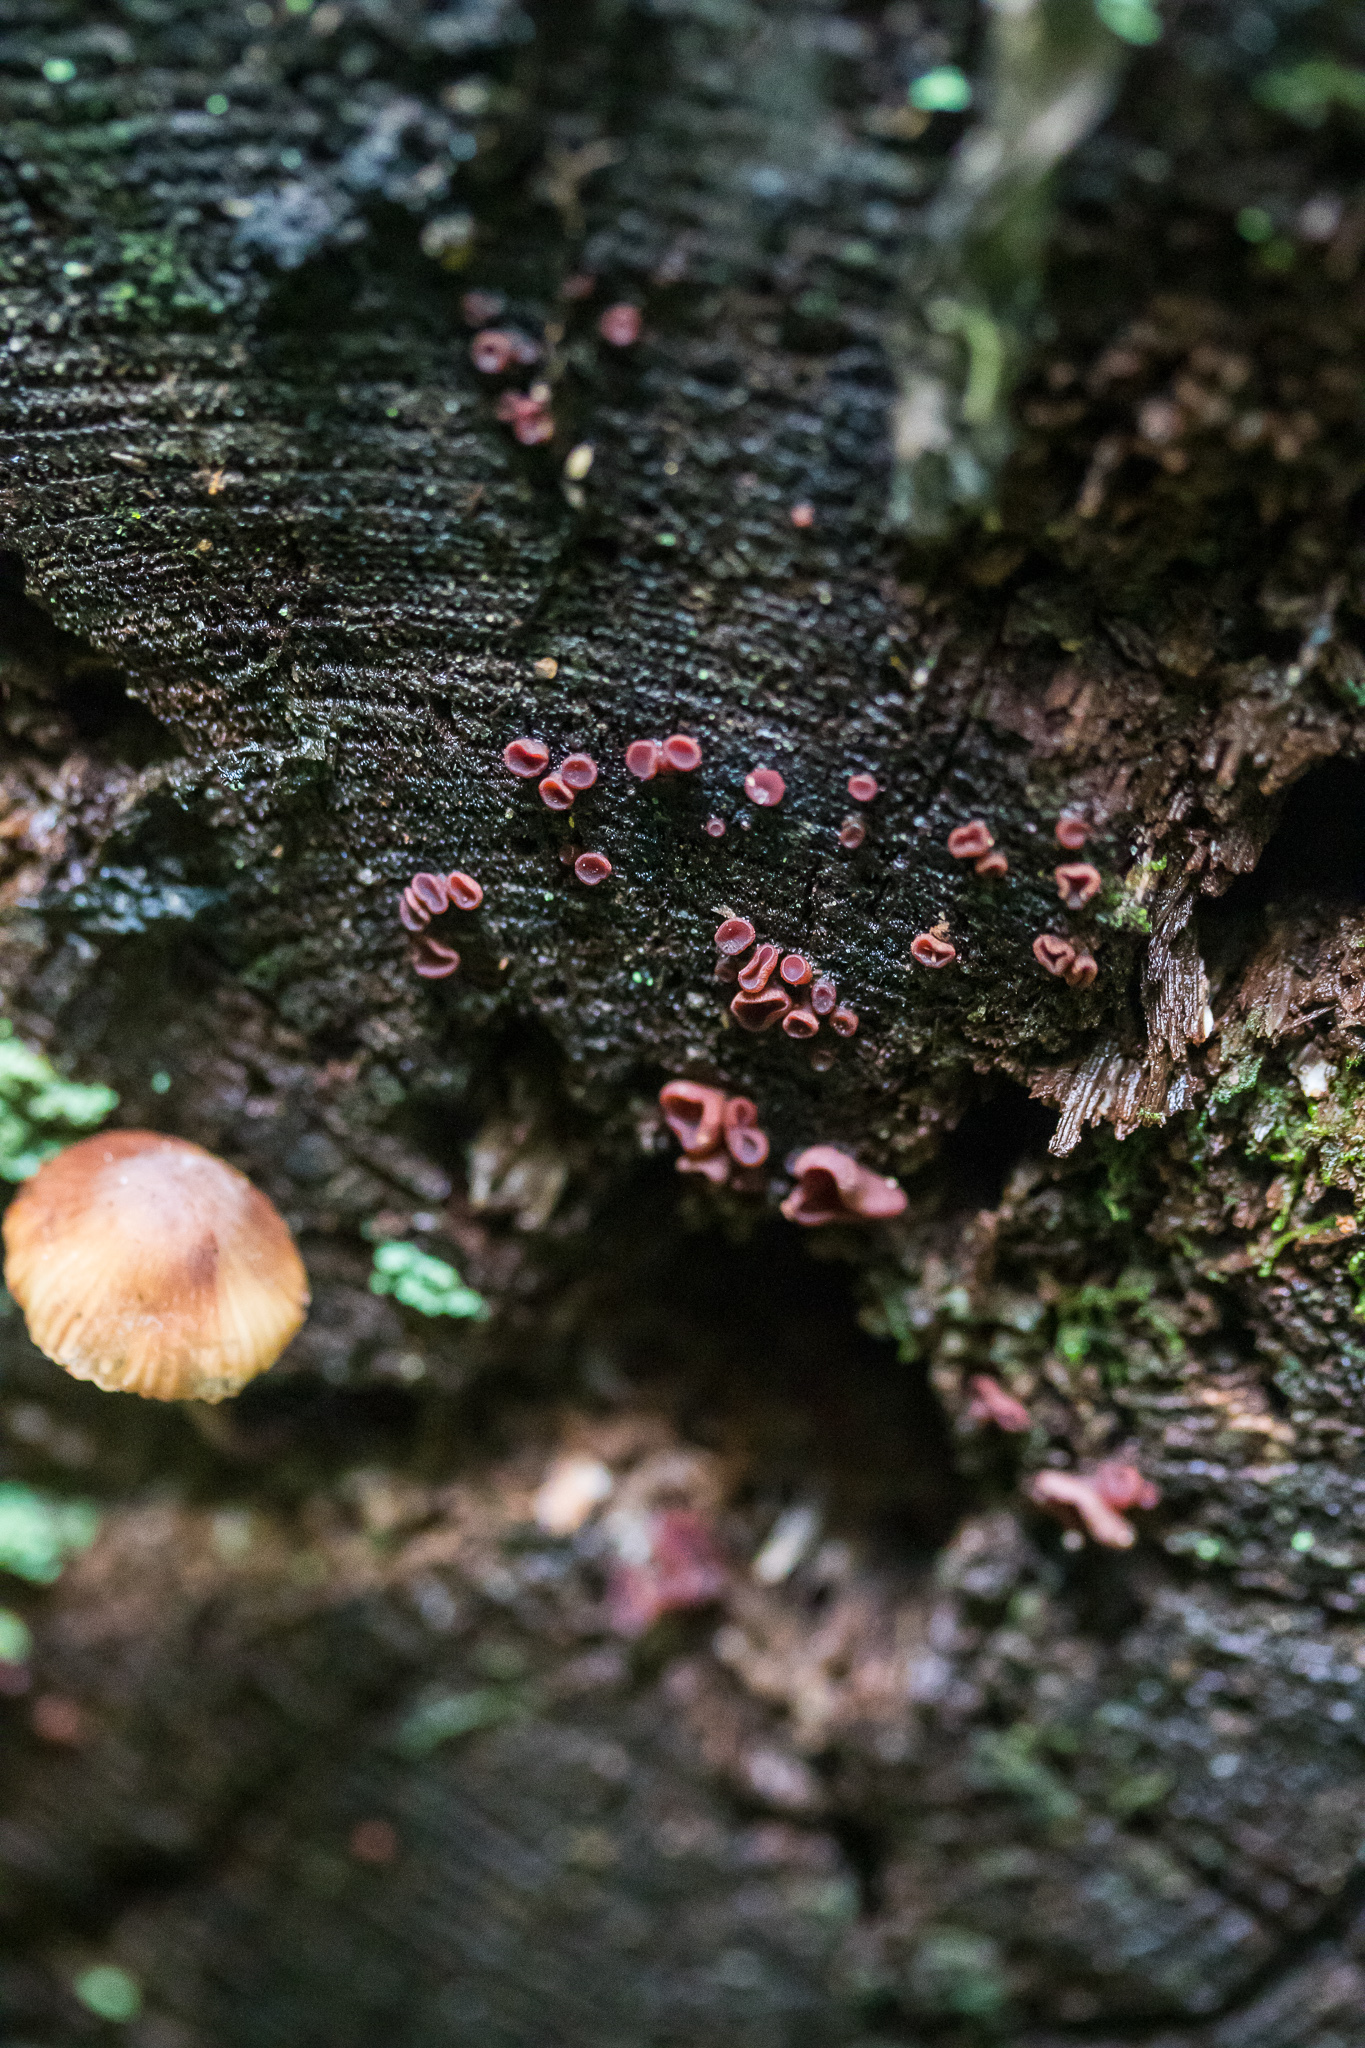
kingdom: Fungi
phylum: Ascomycota
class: Leotiomycetes
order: Helotiales
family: Gelatinodiscaceae
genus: Ascocoryne
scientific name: Ascocoryne sarcoides
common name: Purple jellydisc
